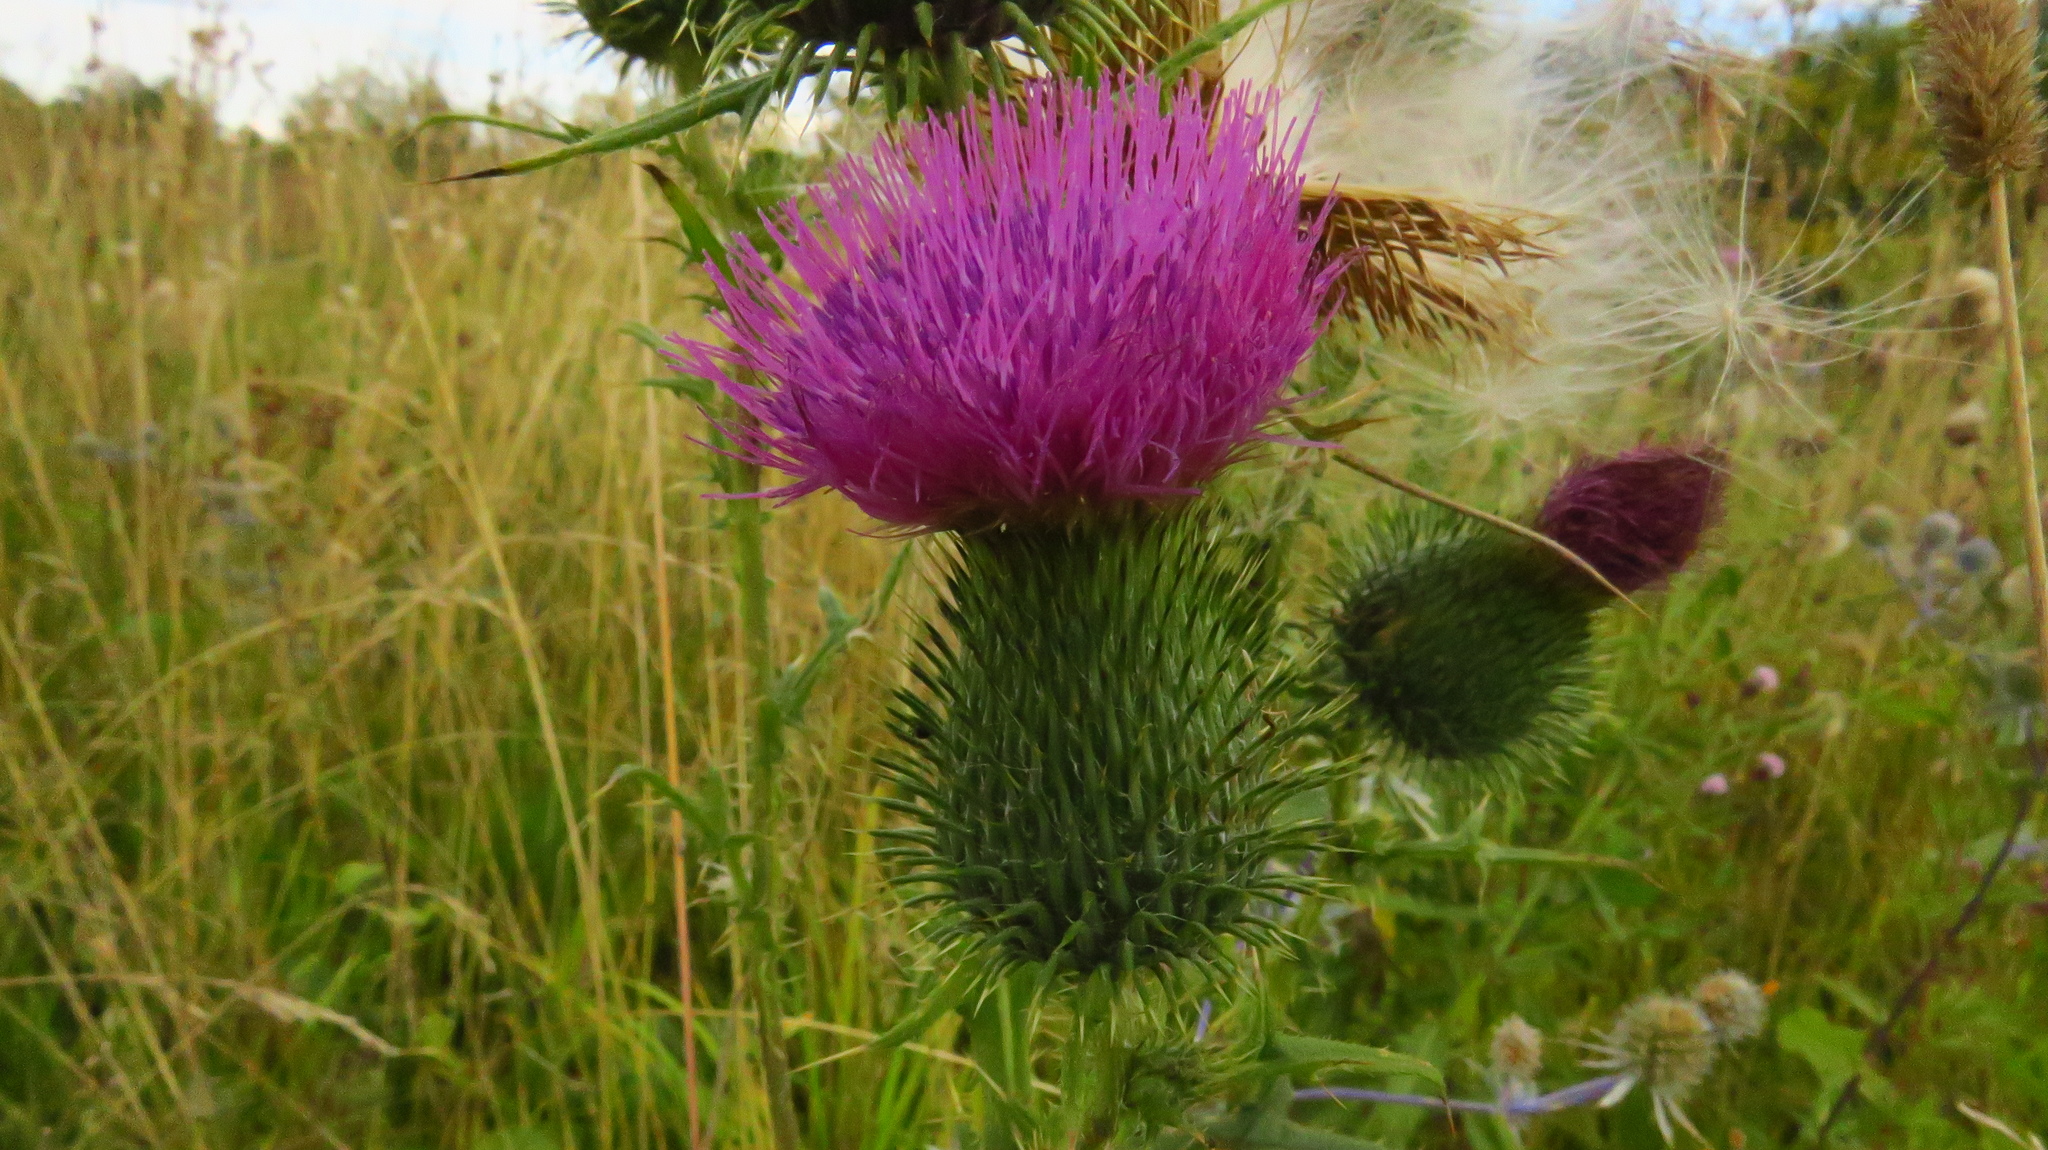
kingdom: Plantae
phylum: Tracheophyta
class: Magnoliopsida
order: Asterales
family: Asteraceae
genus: Cirsium
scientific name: Cirsium vulgare
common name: Bull thistle
